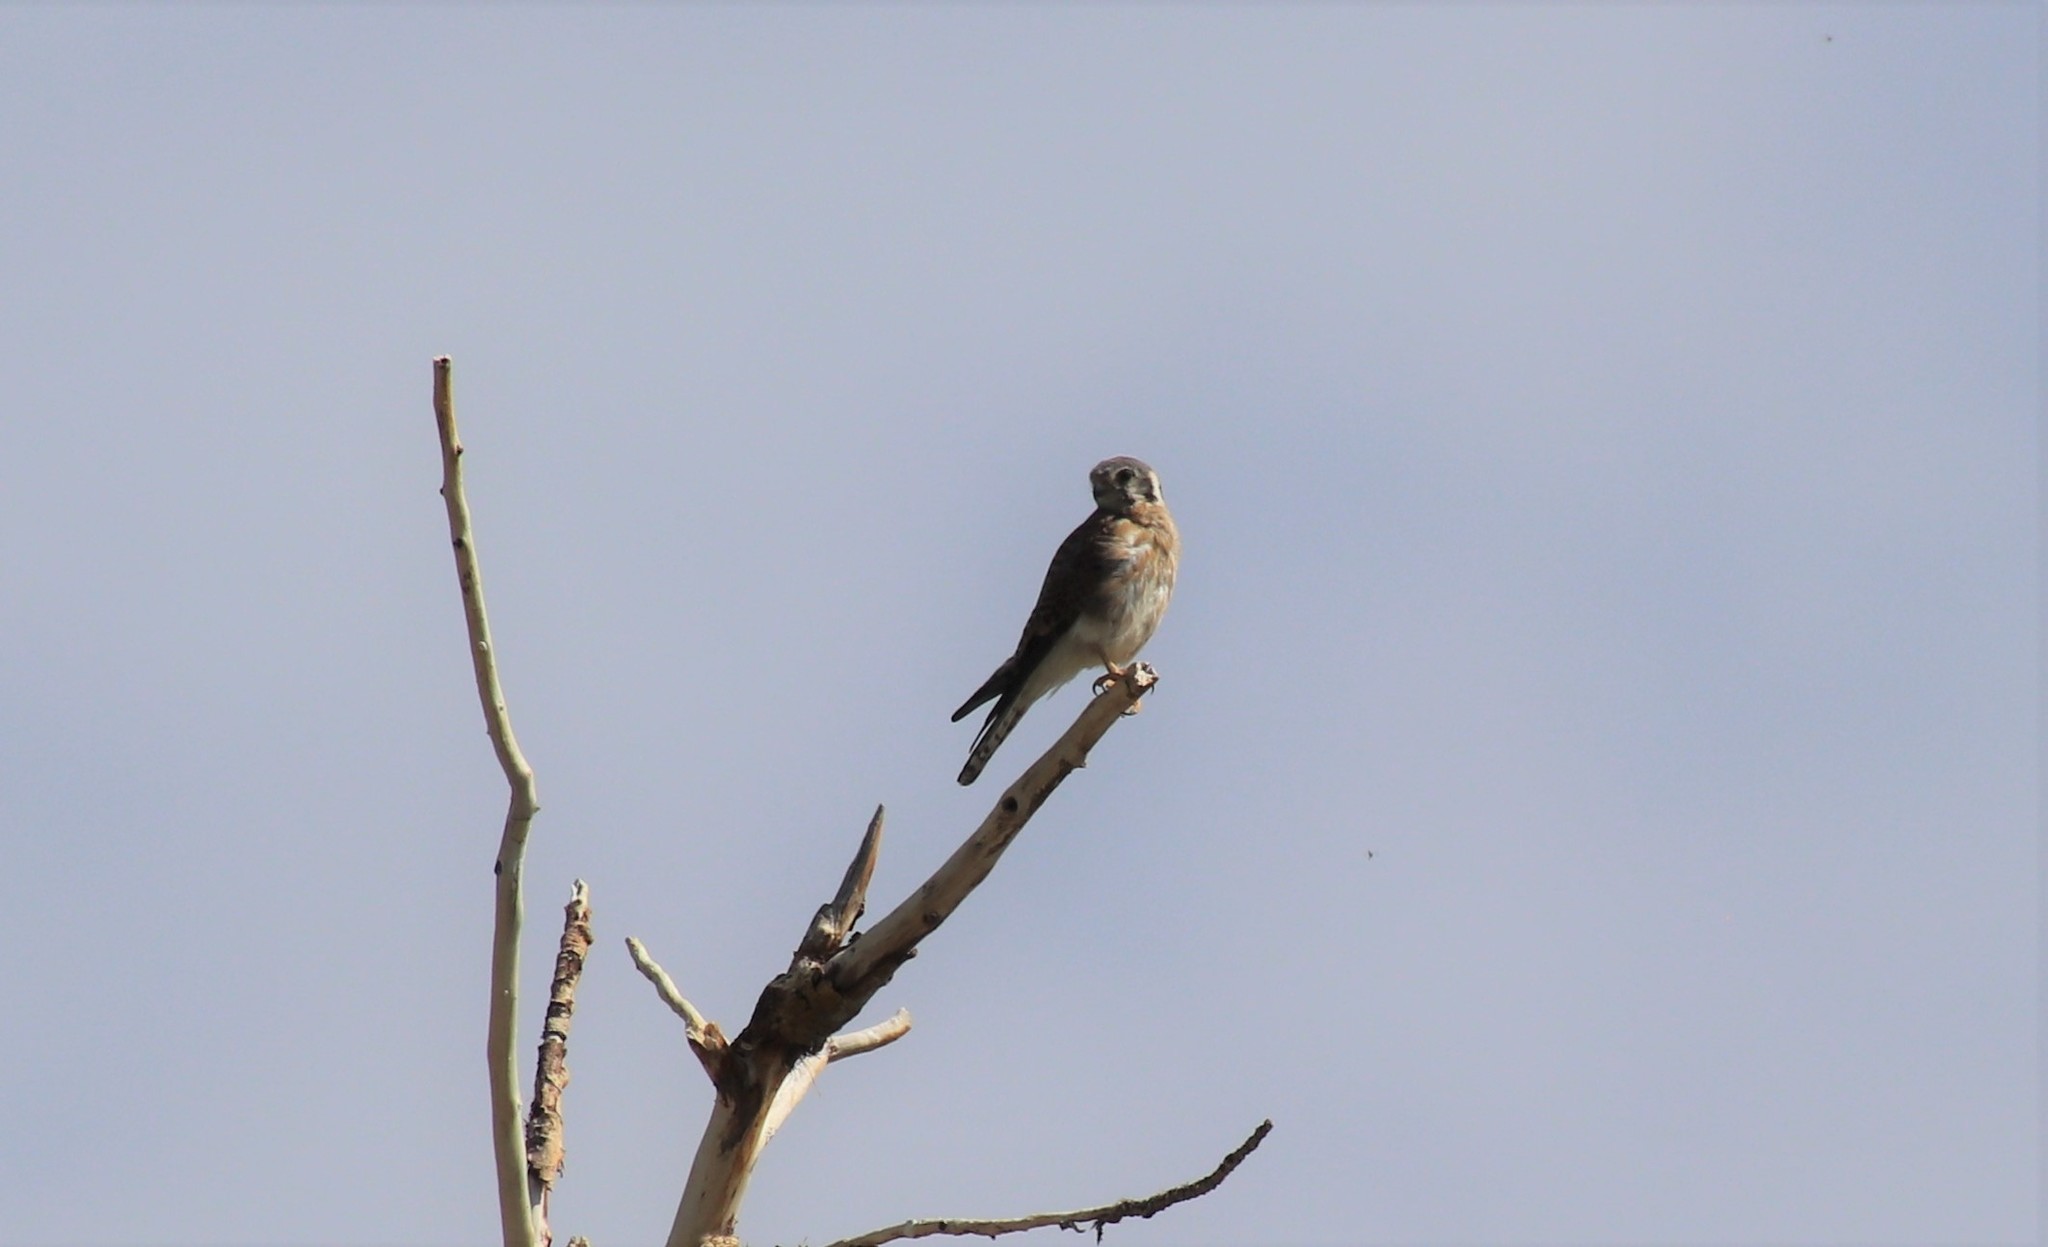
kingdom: Animalia
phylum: Chordata
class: Aves
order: Falconiformes
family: Falconidae
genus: Falco
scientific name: Falco sparverius
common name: American kestrel
